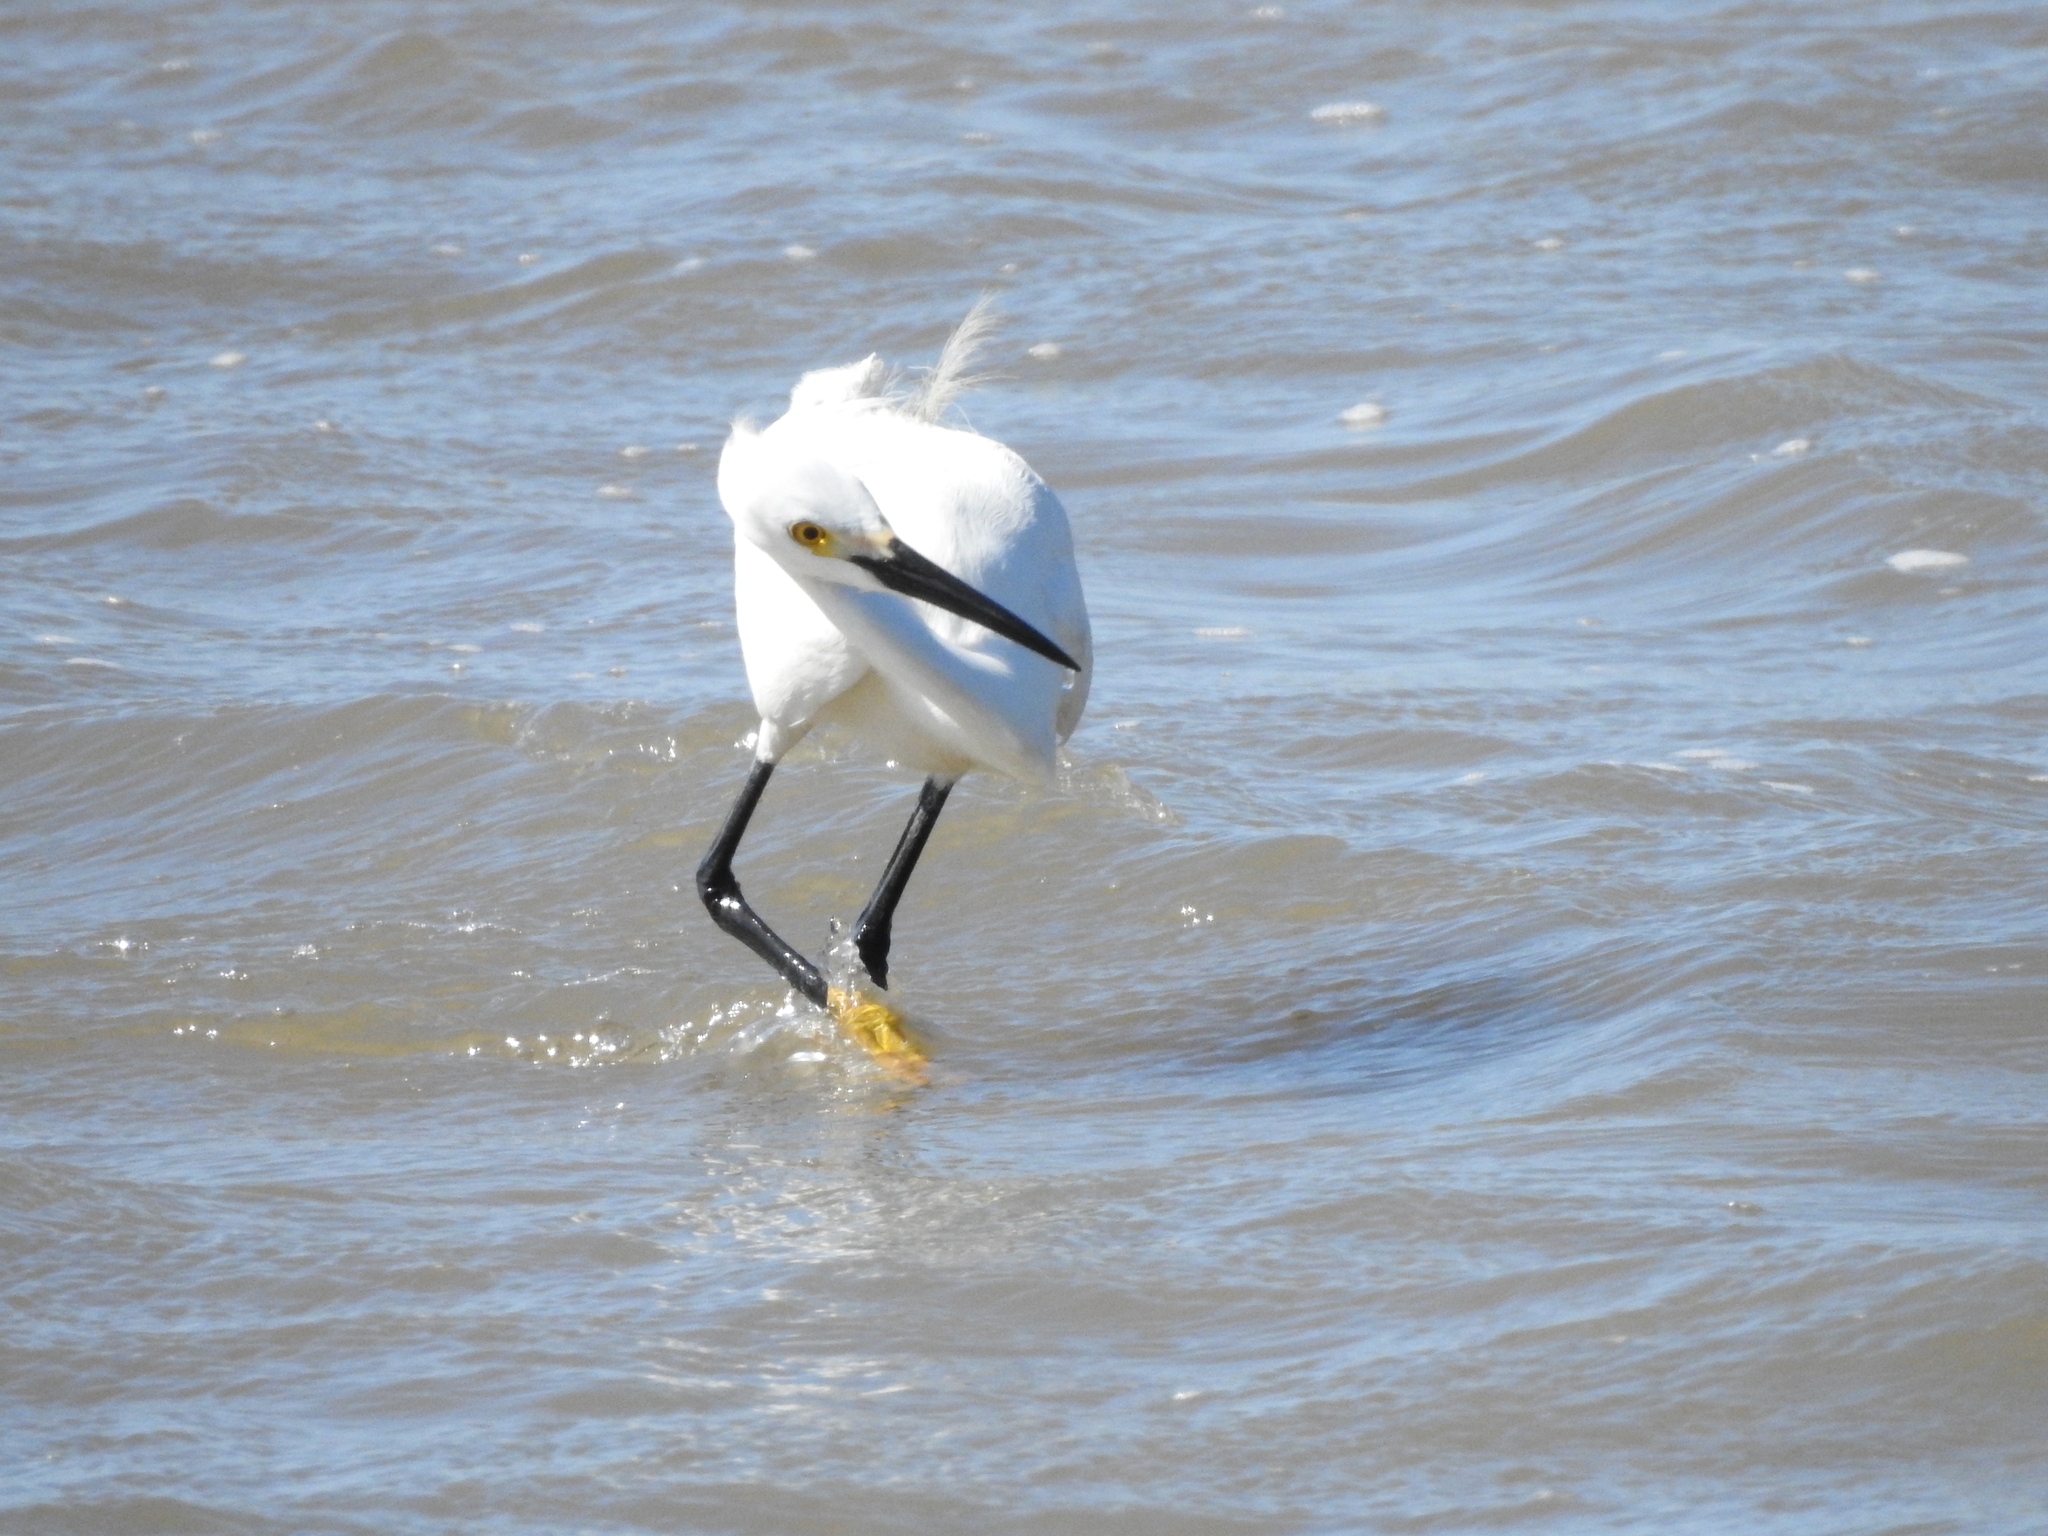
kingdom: Animalia
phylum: Chordata
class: Aves
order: Pelecaniformes
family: Ardeidae
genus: Egretta
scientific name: Egretta thula
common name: Snowy egret
